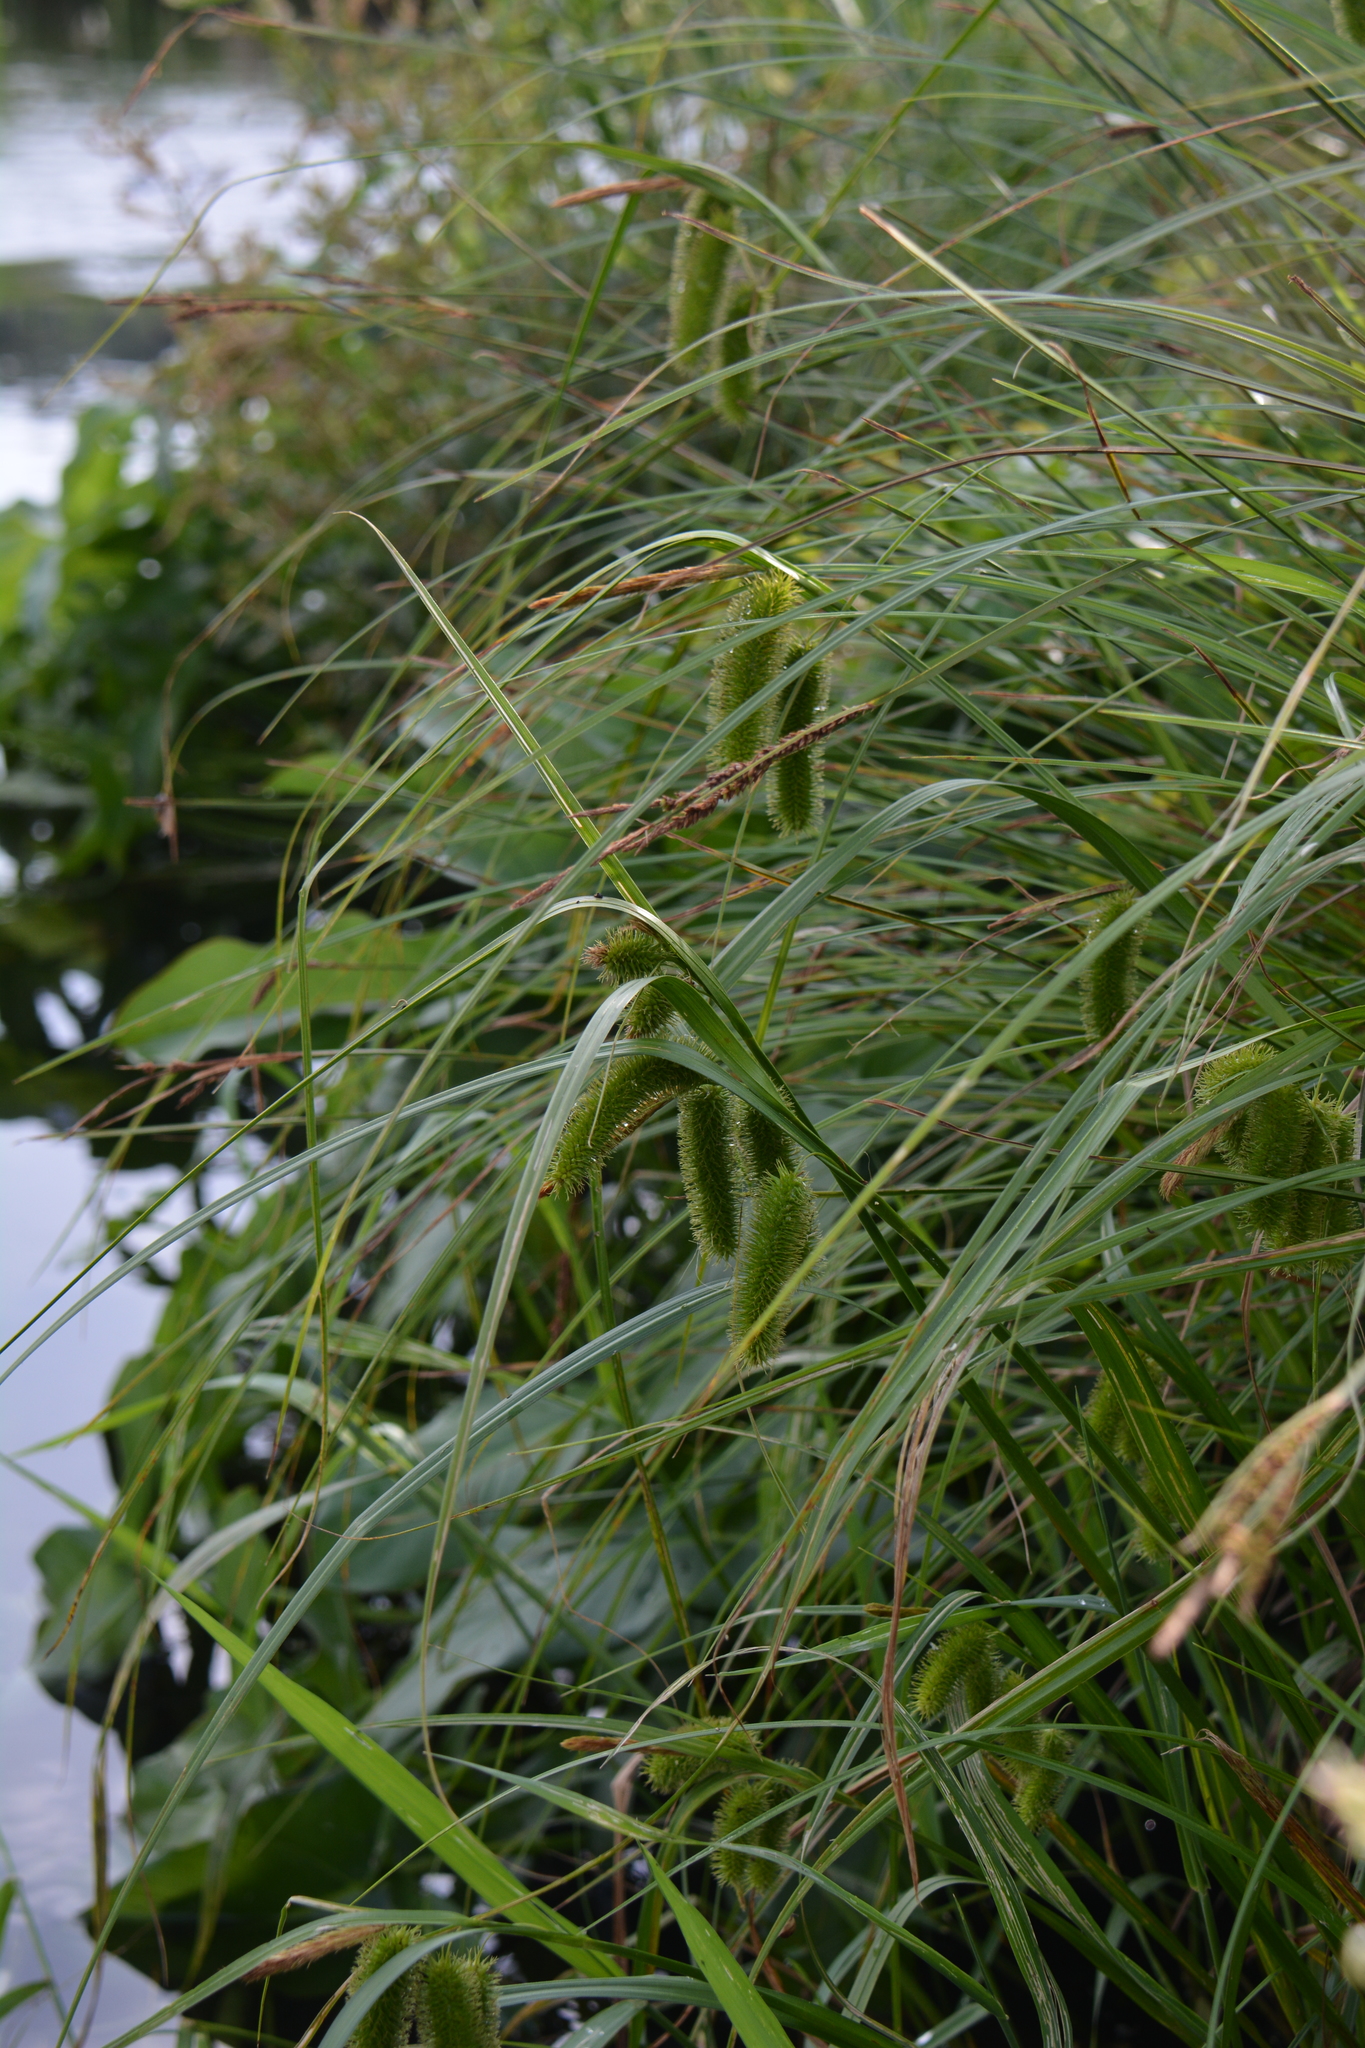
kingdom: Plantae
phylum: Tracheophyta
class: Liliopsida
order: Poales
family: Cyperaceae
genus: Carex
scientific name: Carex comosa
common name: Bristly sedge
